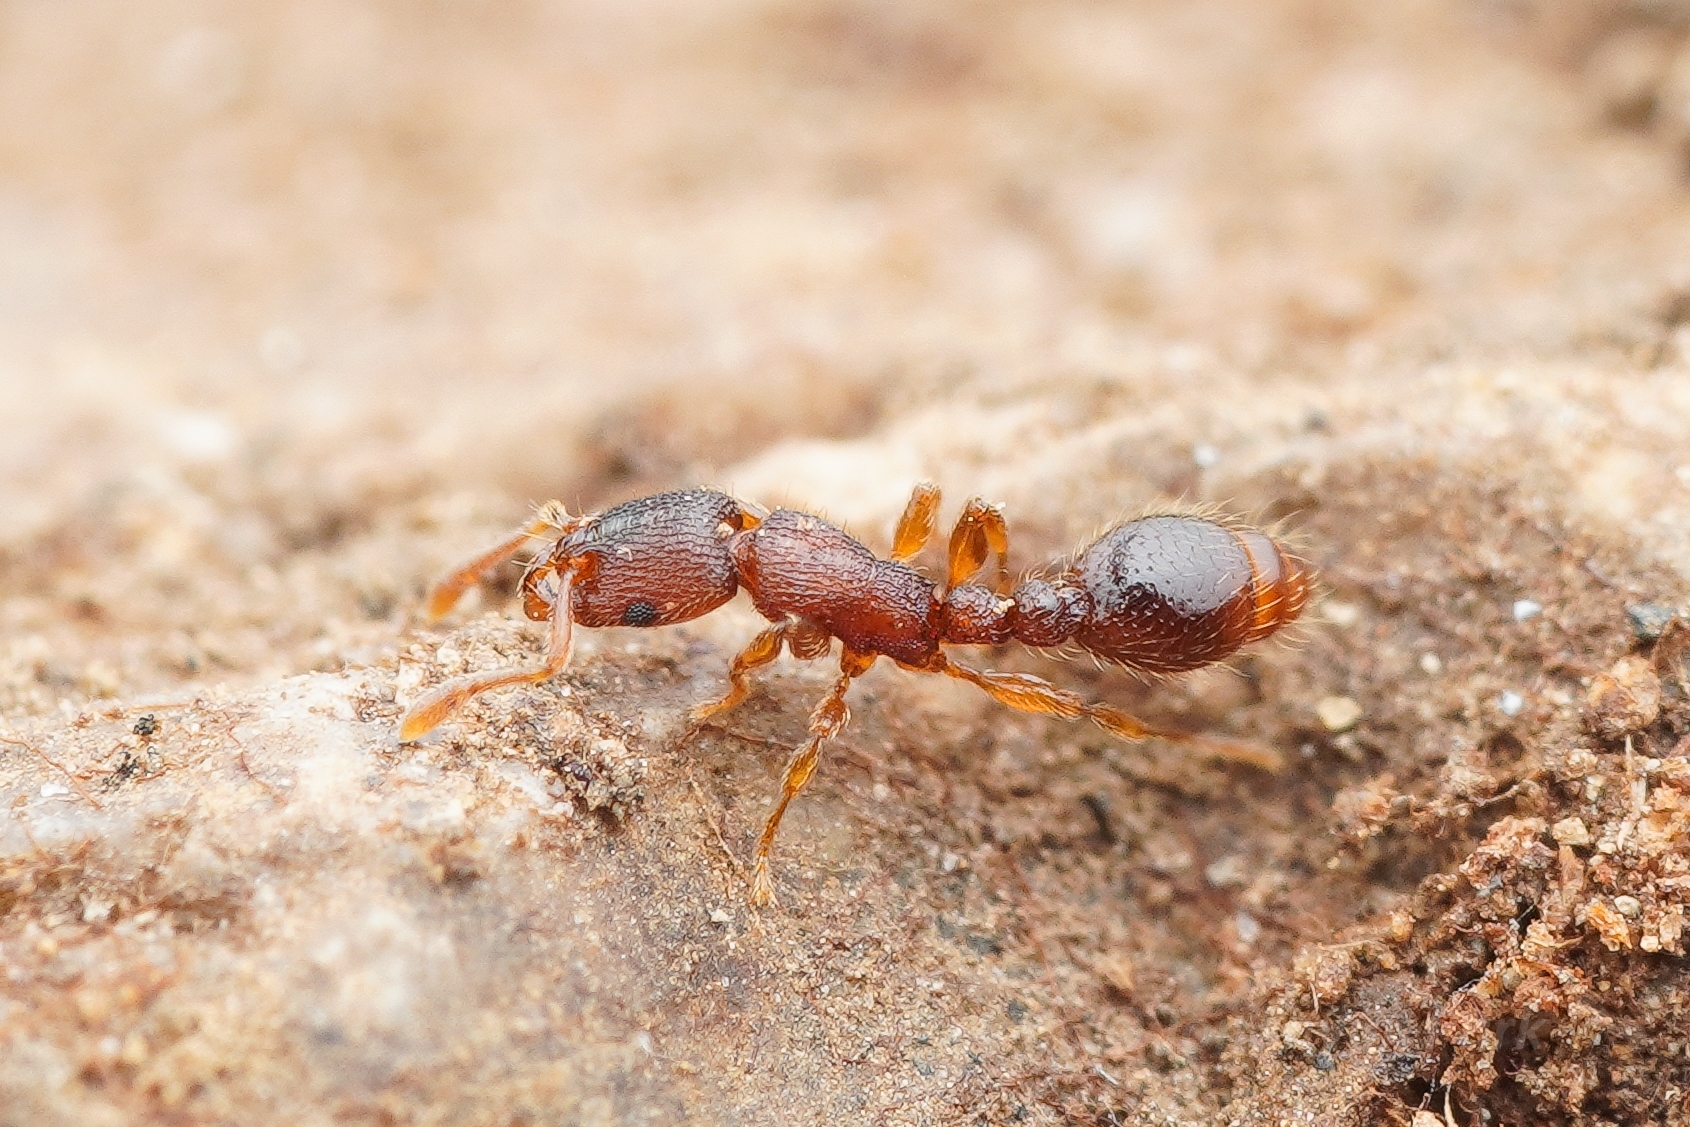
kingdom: Animalia
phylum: Arthropoda
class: Insecta
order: Hymenoptera
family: Formicidae
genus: Vollenhovia
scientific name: Vollenhovia emeryi
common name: Ant
